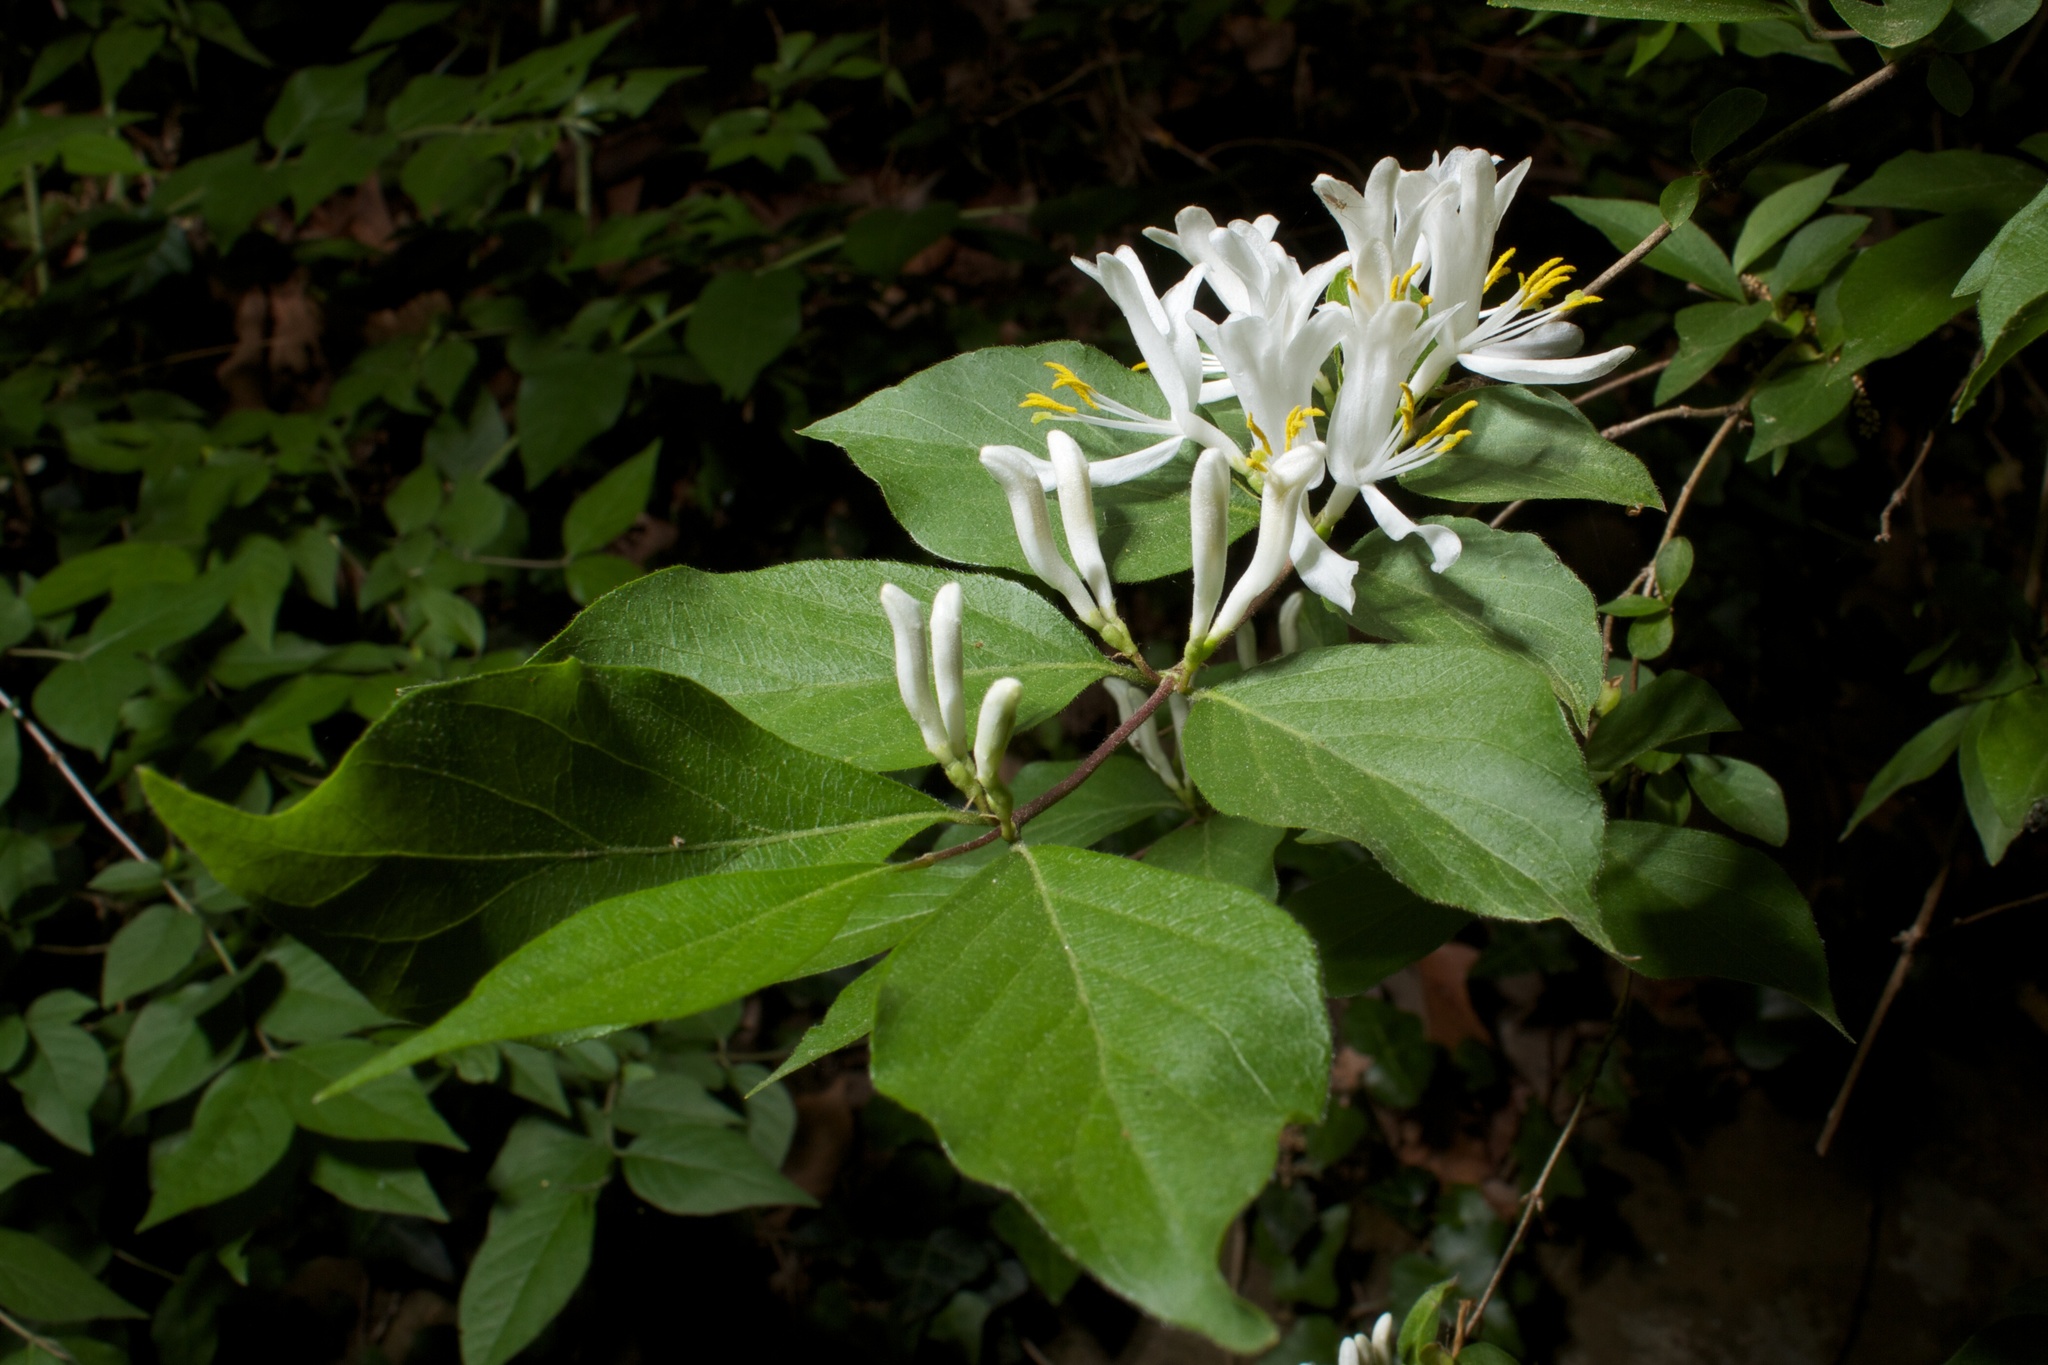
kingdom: Plantae
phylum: Tracheophyta
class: Magnoliopsida
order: Dipsacales
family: Caprifoliaceae
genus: Lonicera
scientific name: Lonicera maackii
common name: Amur honeysuckle
